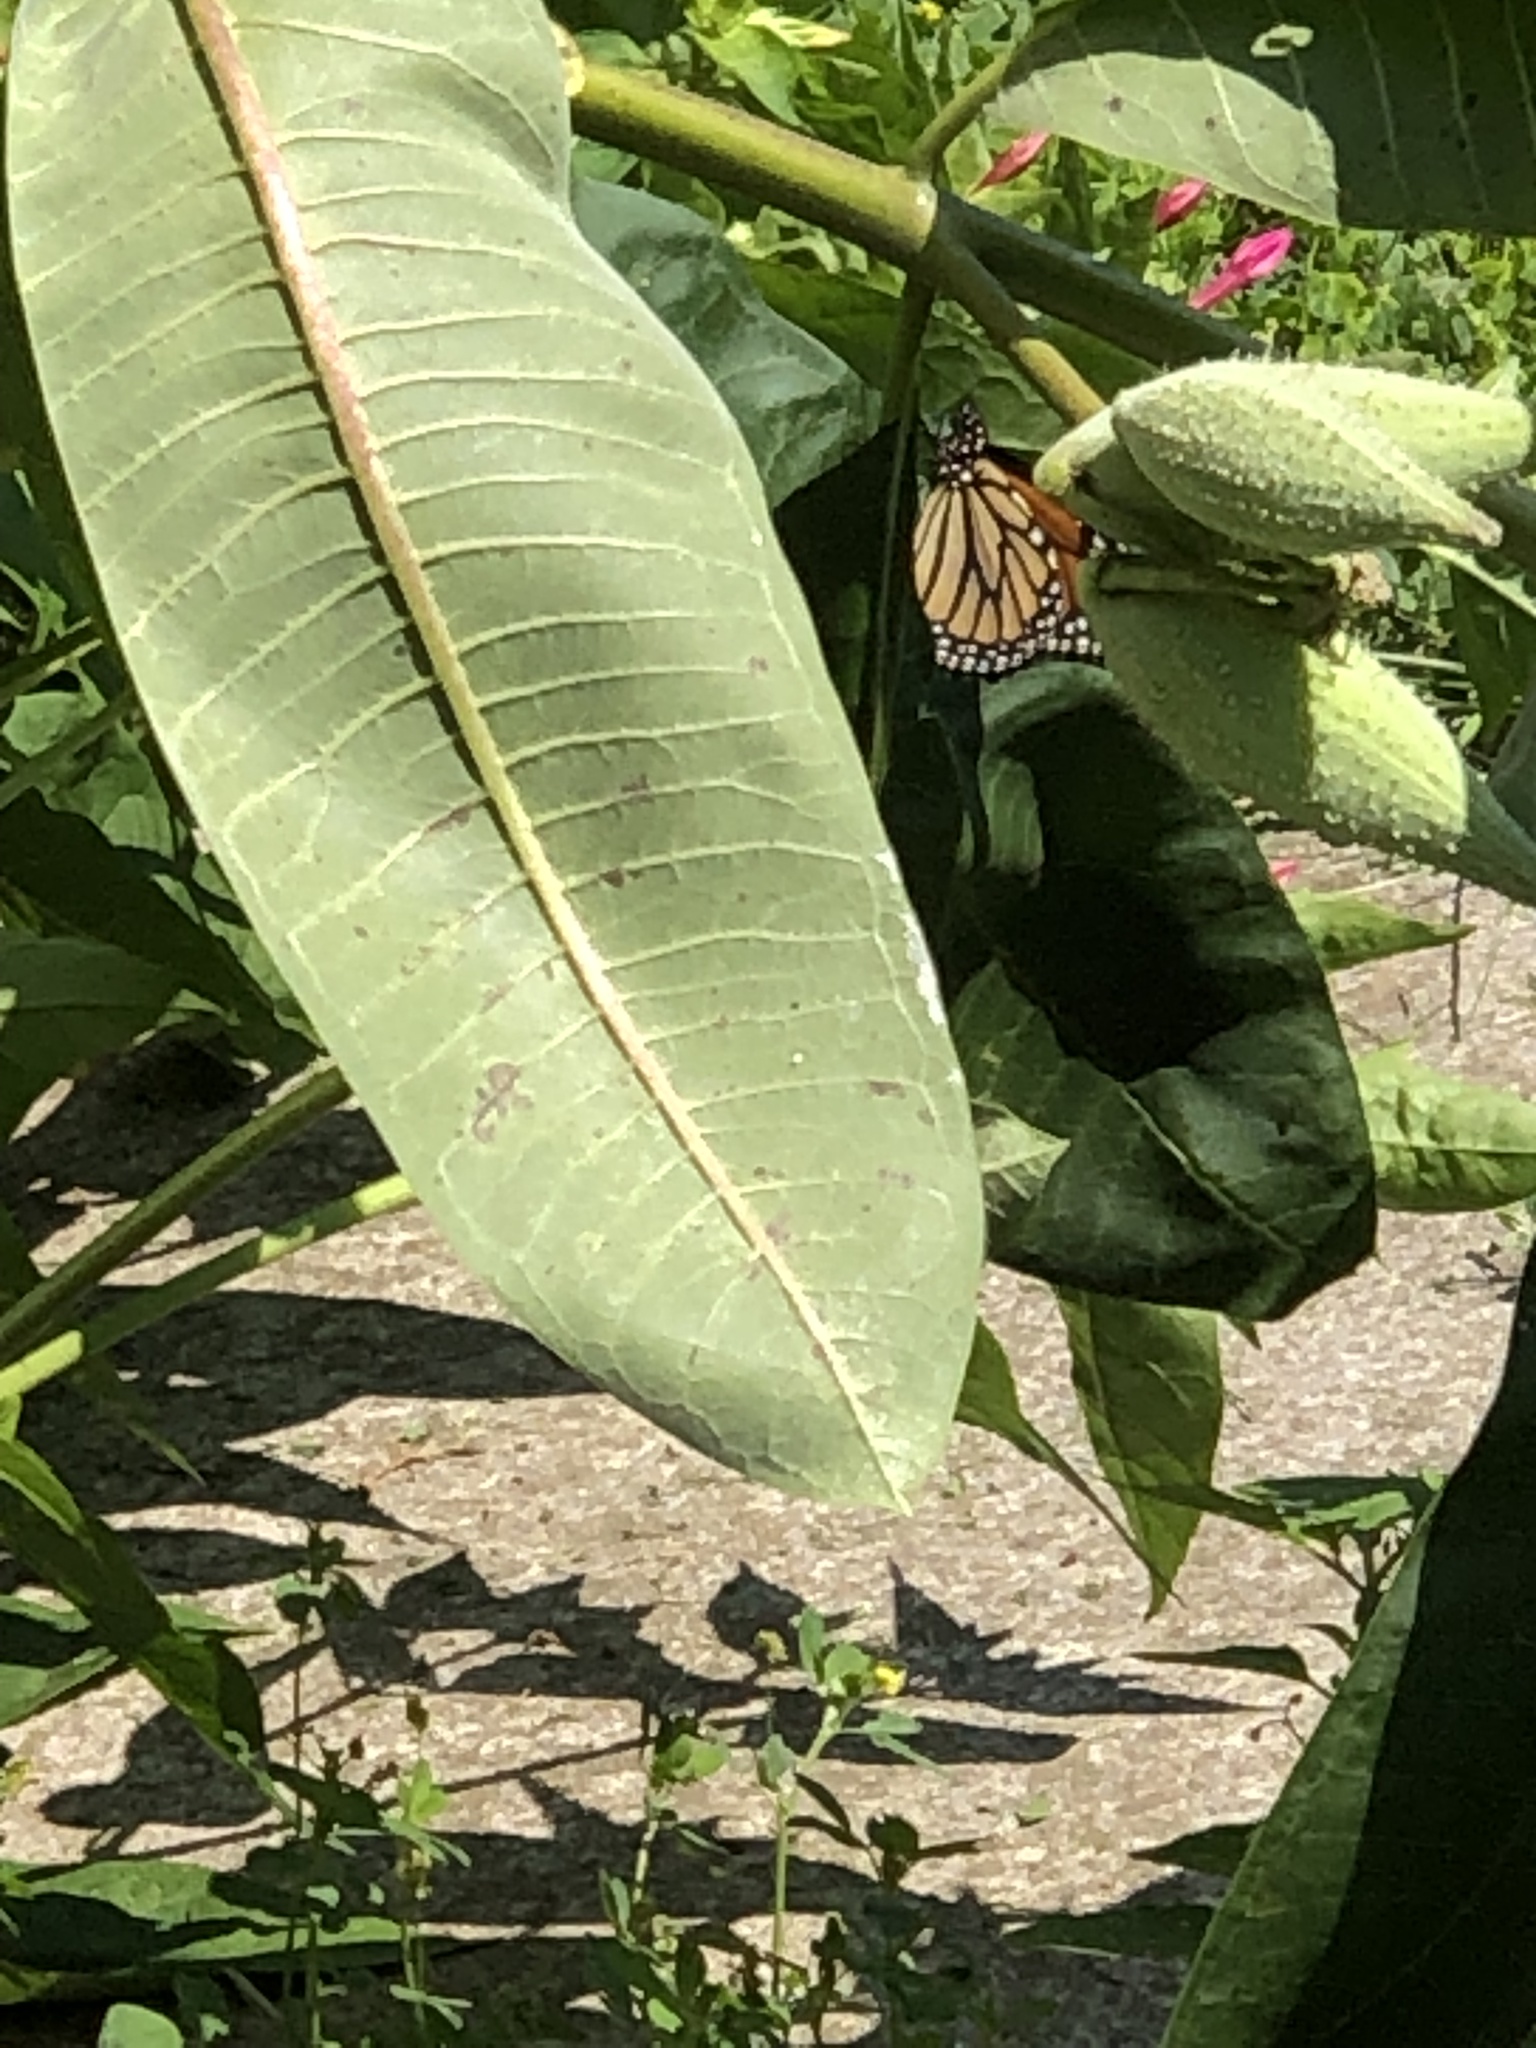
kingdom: Animalia
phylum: Arthropoda
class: Insecta
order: Lepidoptera
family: Nymphalidae
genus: Danaus
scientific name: Danaus plexippus
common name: Monarch
